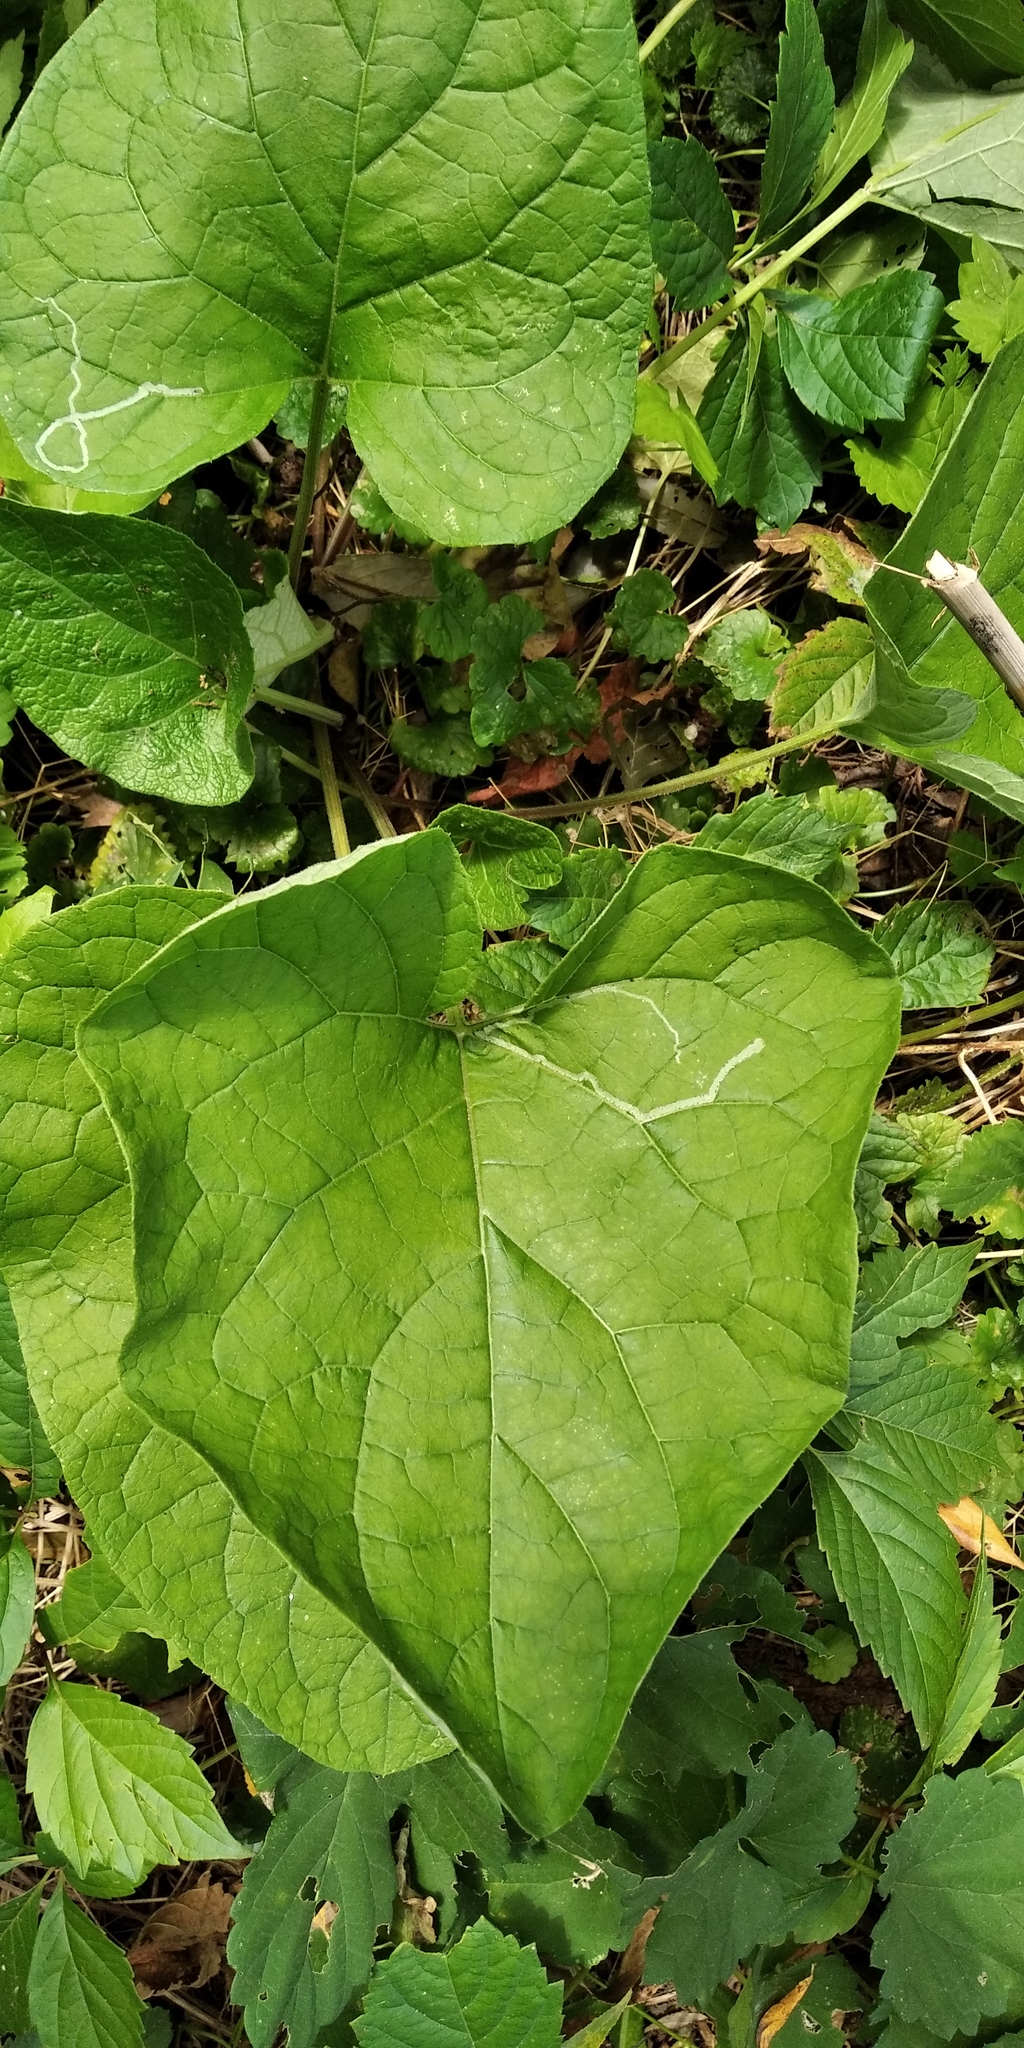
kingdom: Plantae
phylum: Tracheophyta
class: Magnoliopsida
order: Asterales
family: Asteraceae
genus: Arctium
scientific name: Arctium lappa
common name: Greater burdock
